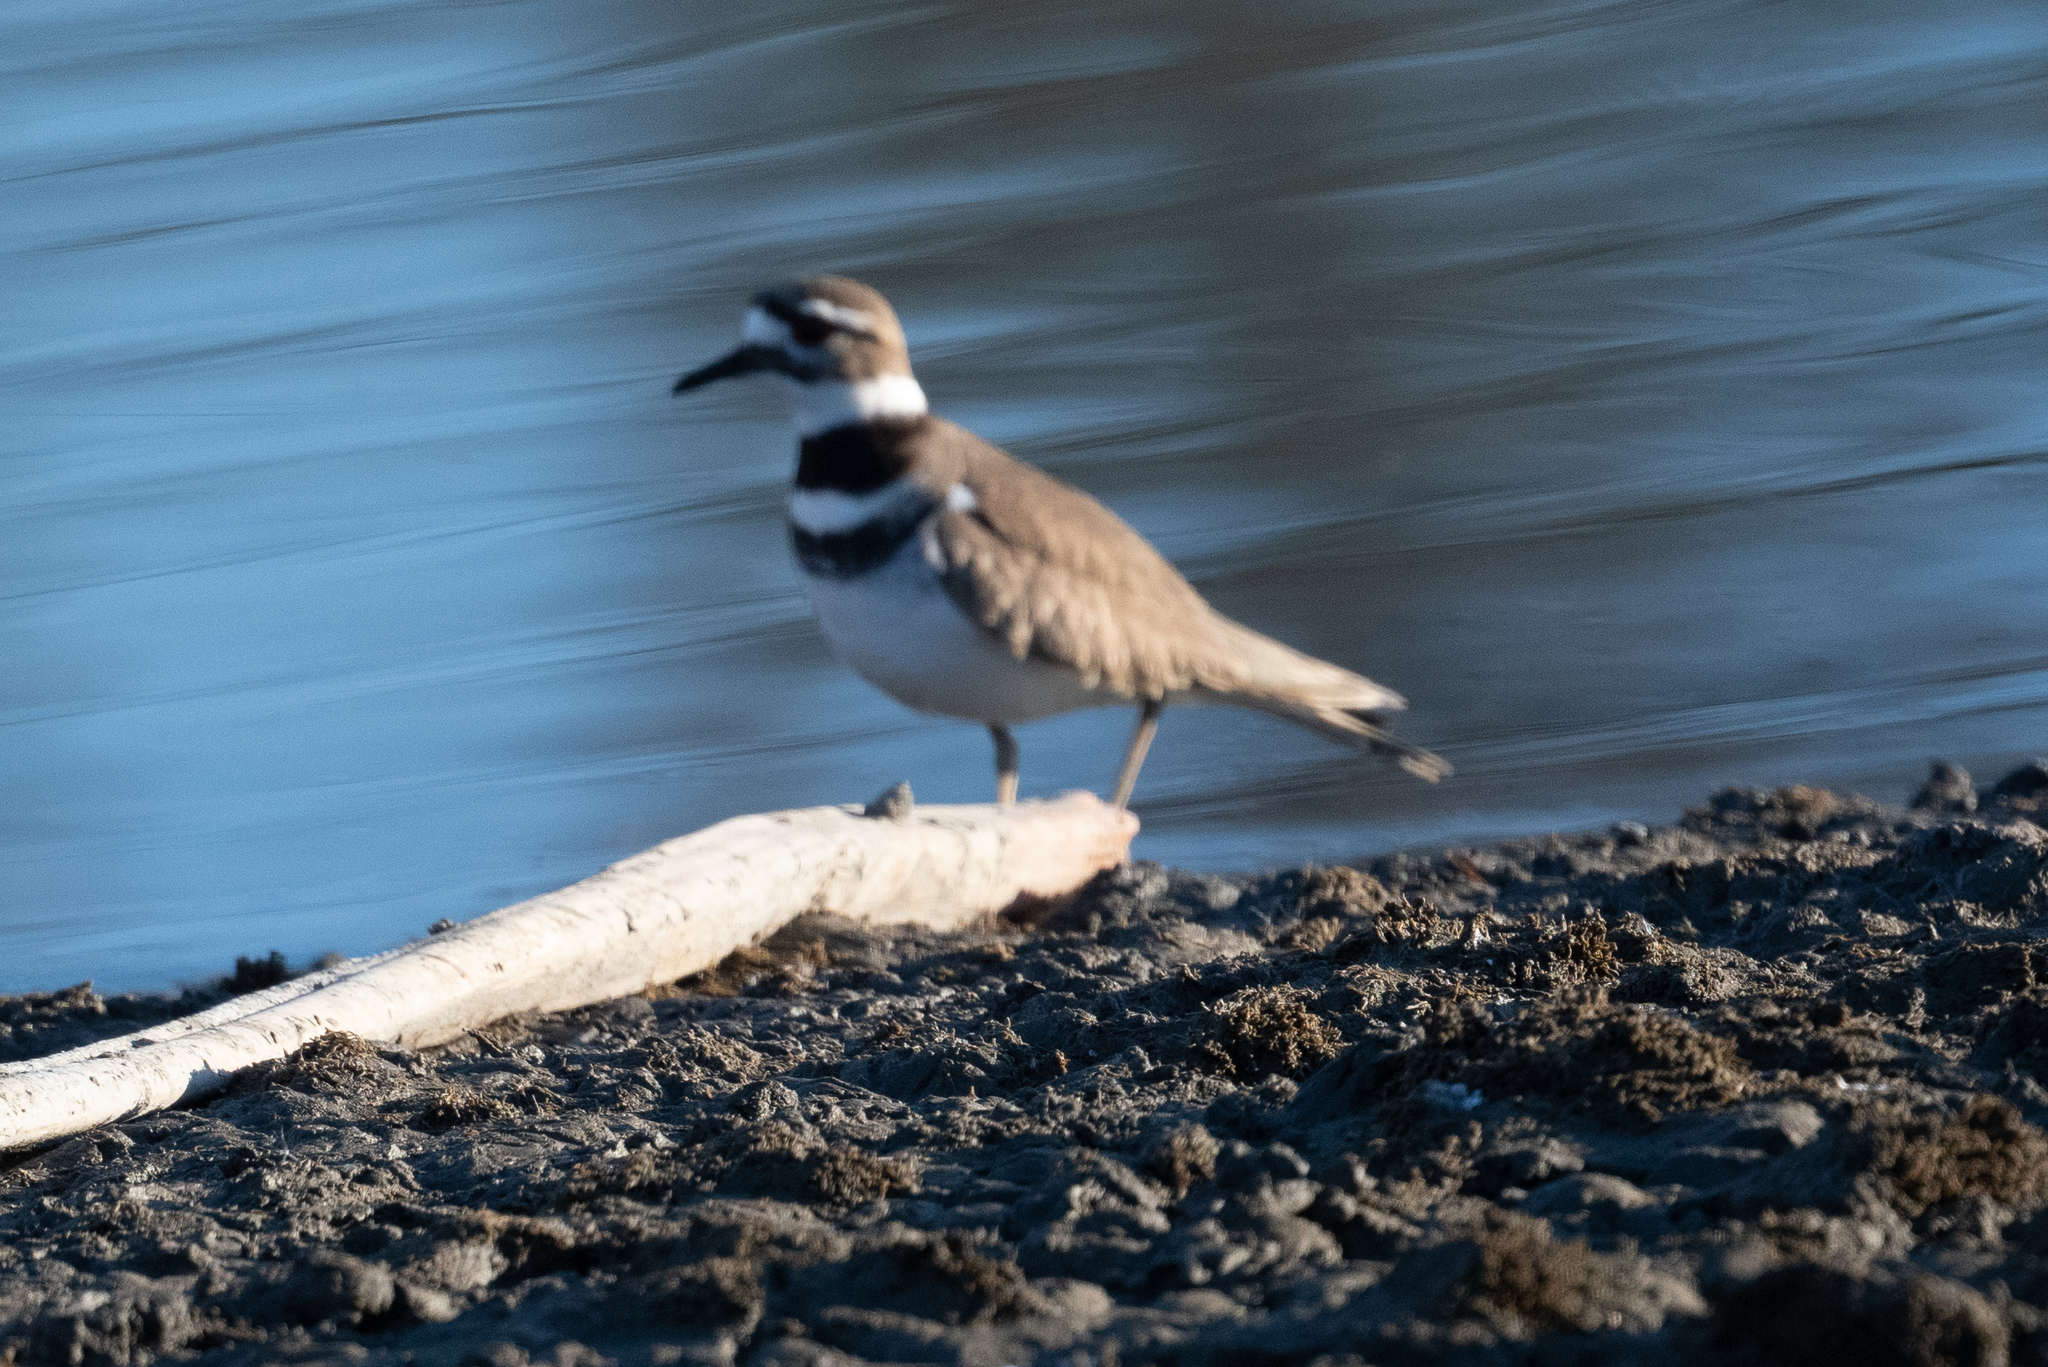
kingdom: Animalia
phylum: Chordata
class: Aves
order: Charadriiformes
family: Charadriidae
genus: Charadrius
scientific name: Charadrius vociferus
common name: Killdeer
